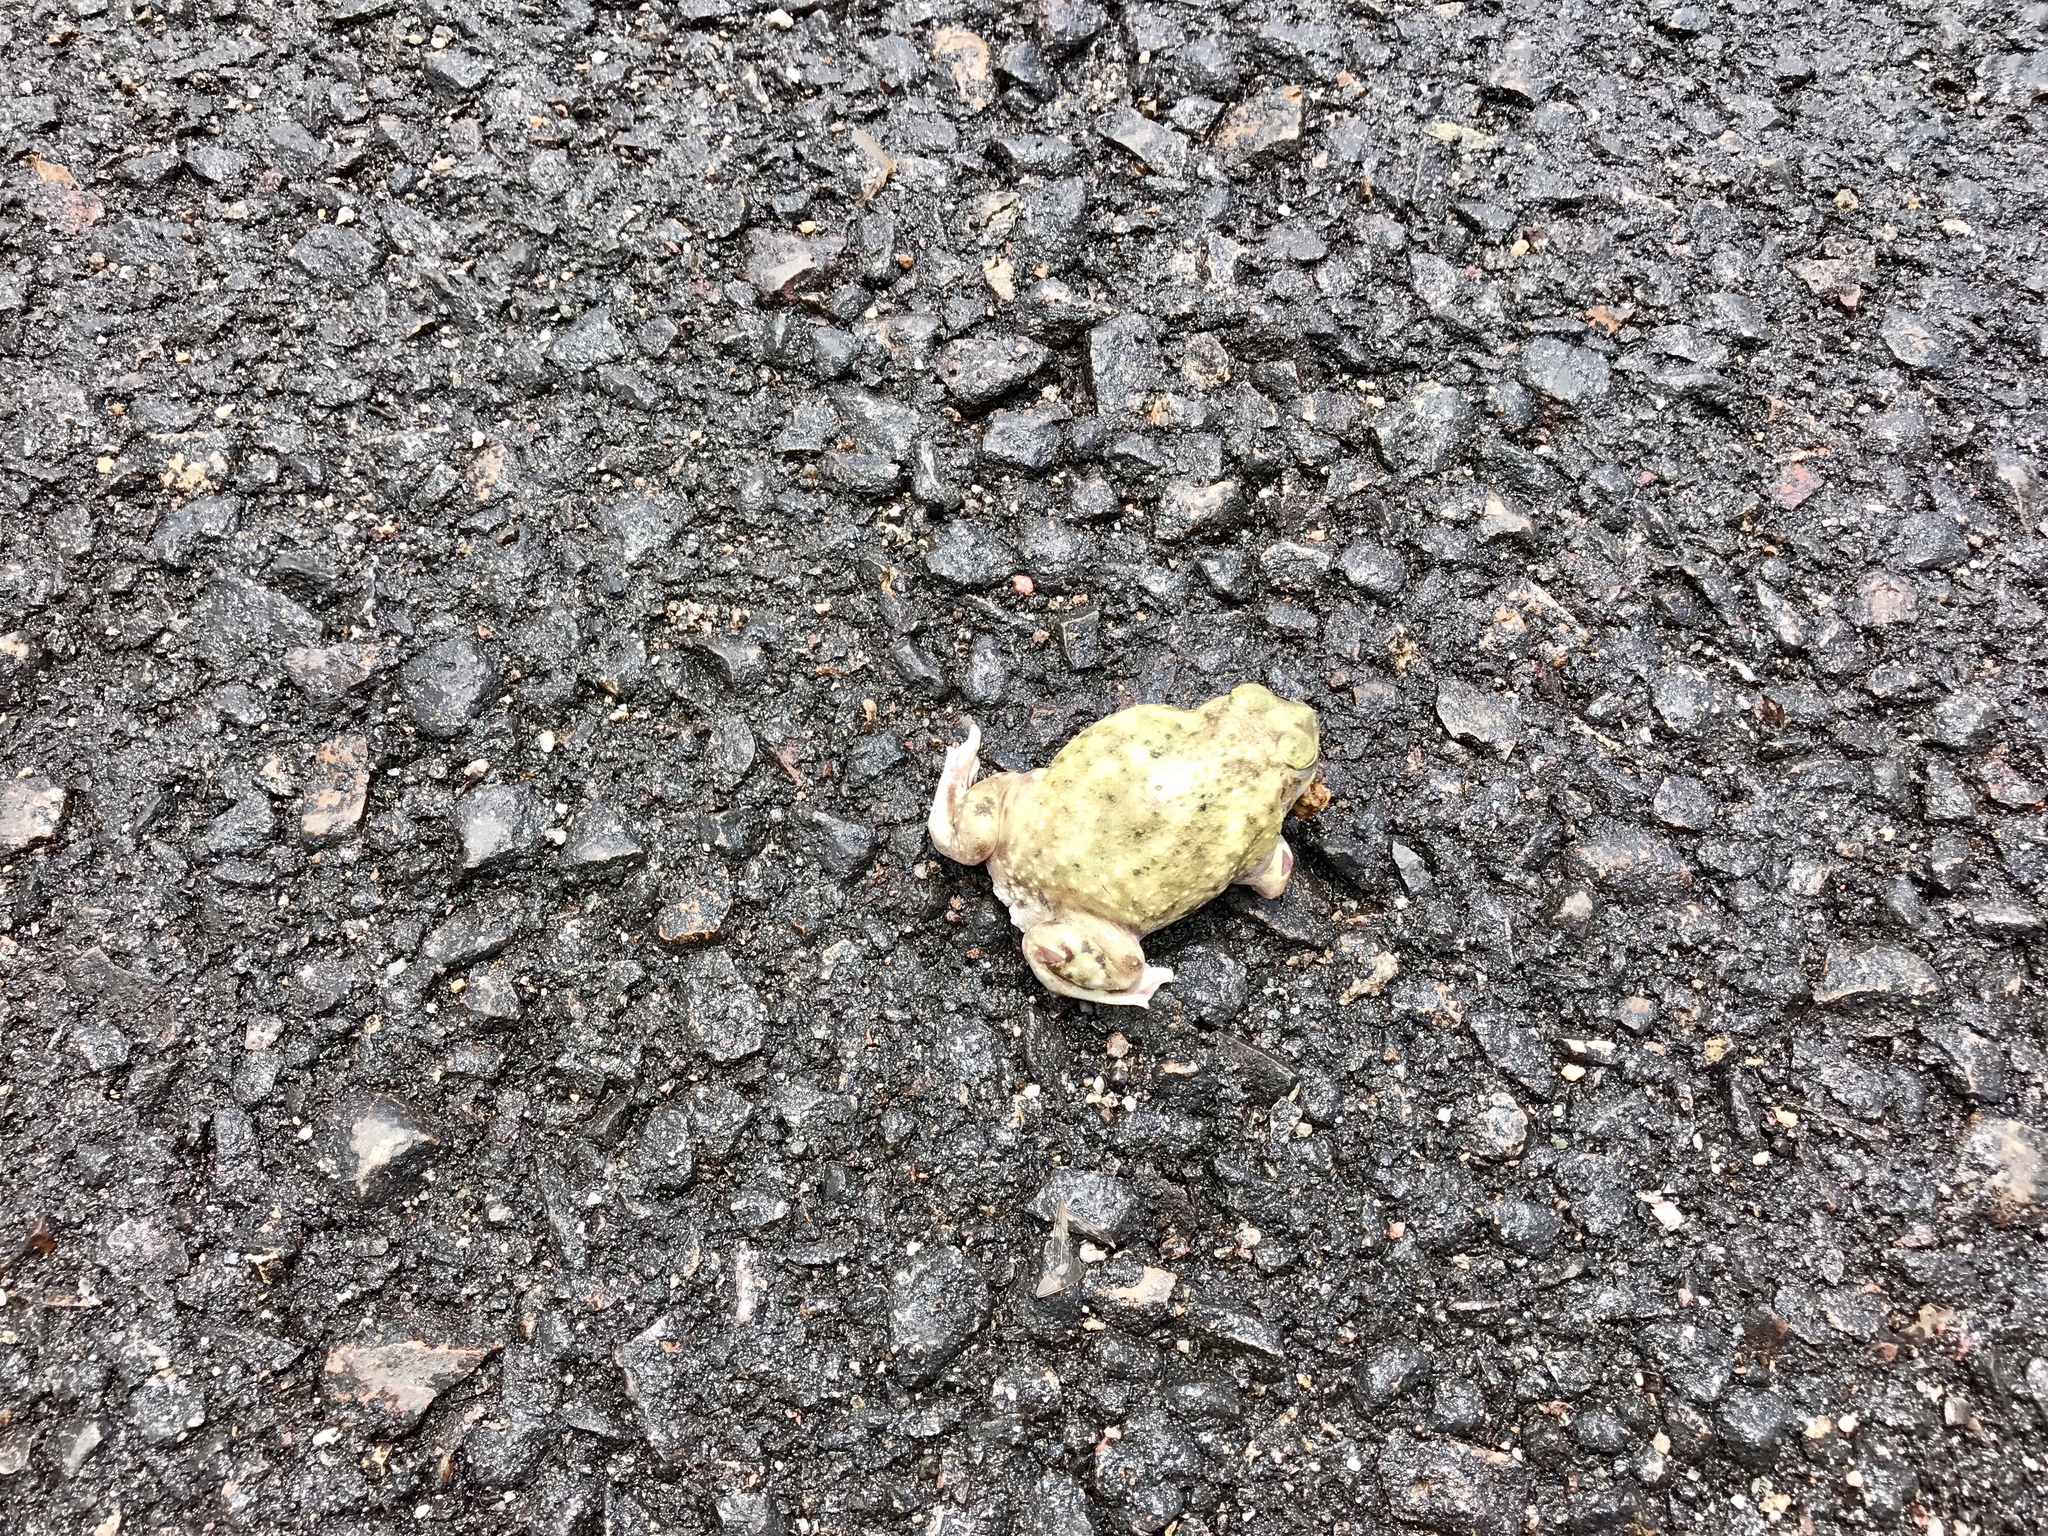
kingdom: Animalia
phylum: Chordata
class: Amphibia
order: Anura
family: Scaphiopodidae
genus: Scaphiopus
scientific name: Scaphiopus couchii
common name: Couch's spadefoot toad
